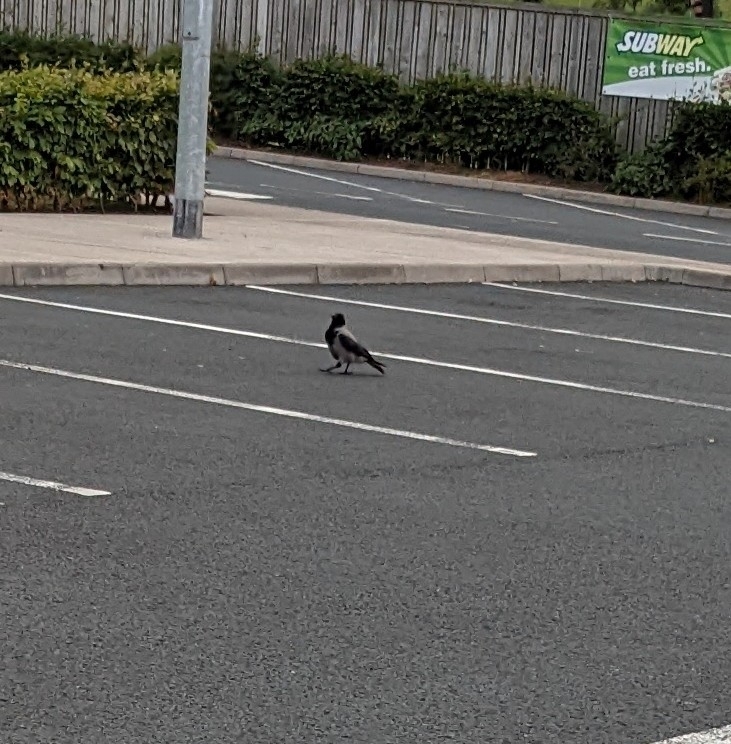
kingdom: Animalia
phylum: Chordata
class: Aves
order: Passeriformes
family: Corvidae
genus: Corvus
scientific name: Corvus cornix
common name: Hooded crow
